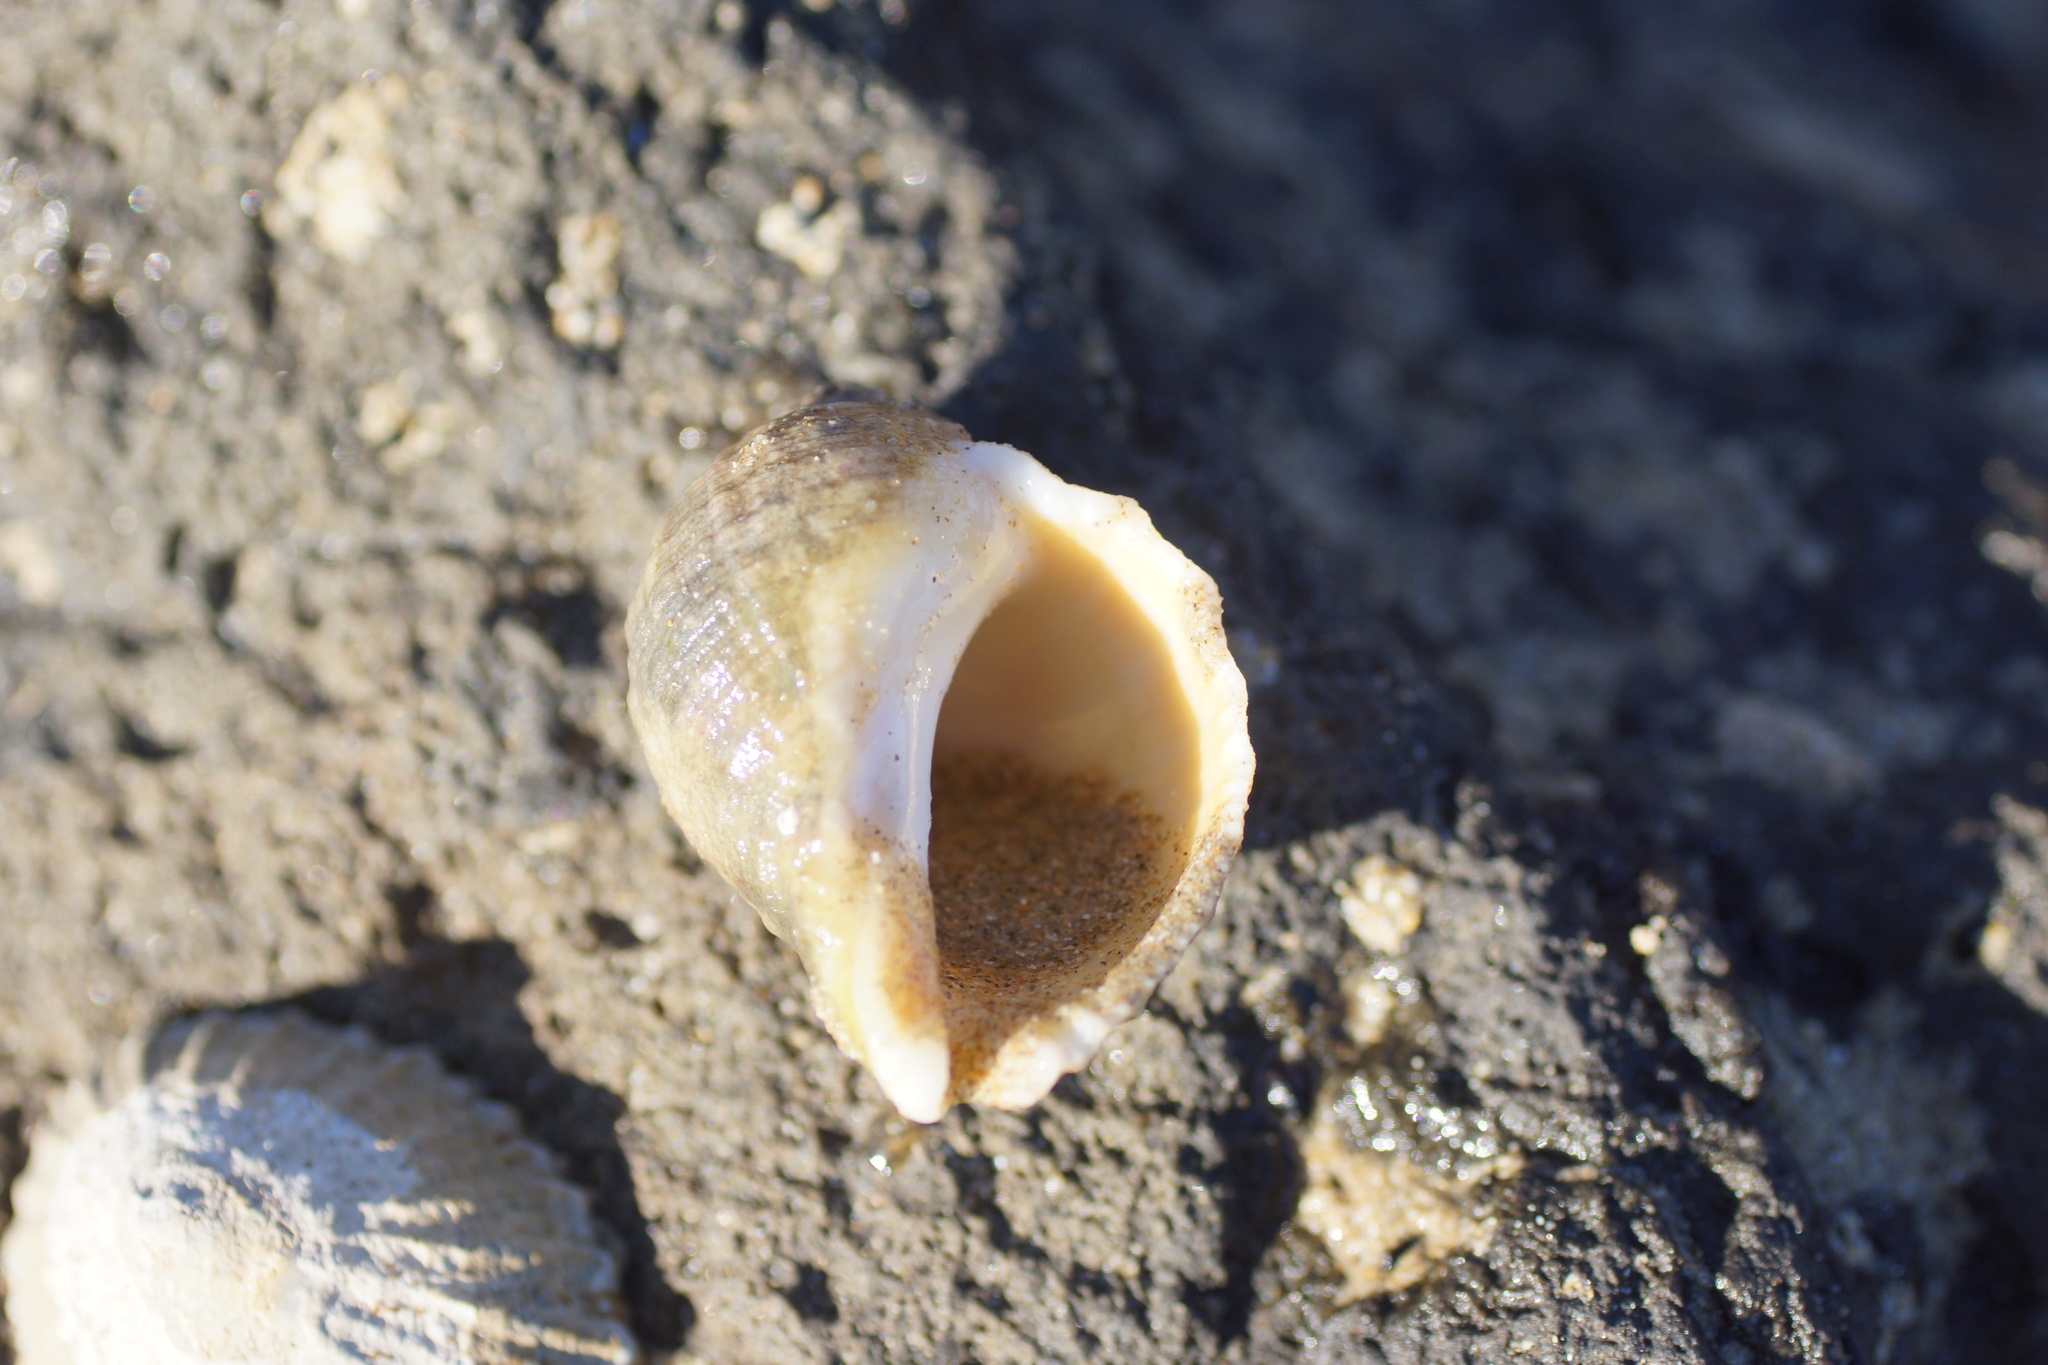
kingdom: Animalia
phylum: Mollusca
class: Gastropoda
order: Neogastropoda
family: Muricidae
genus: Dicathais
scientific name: Dicathais orbita
